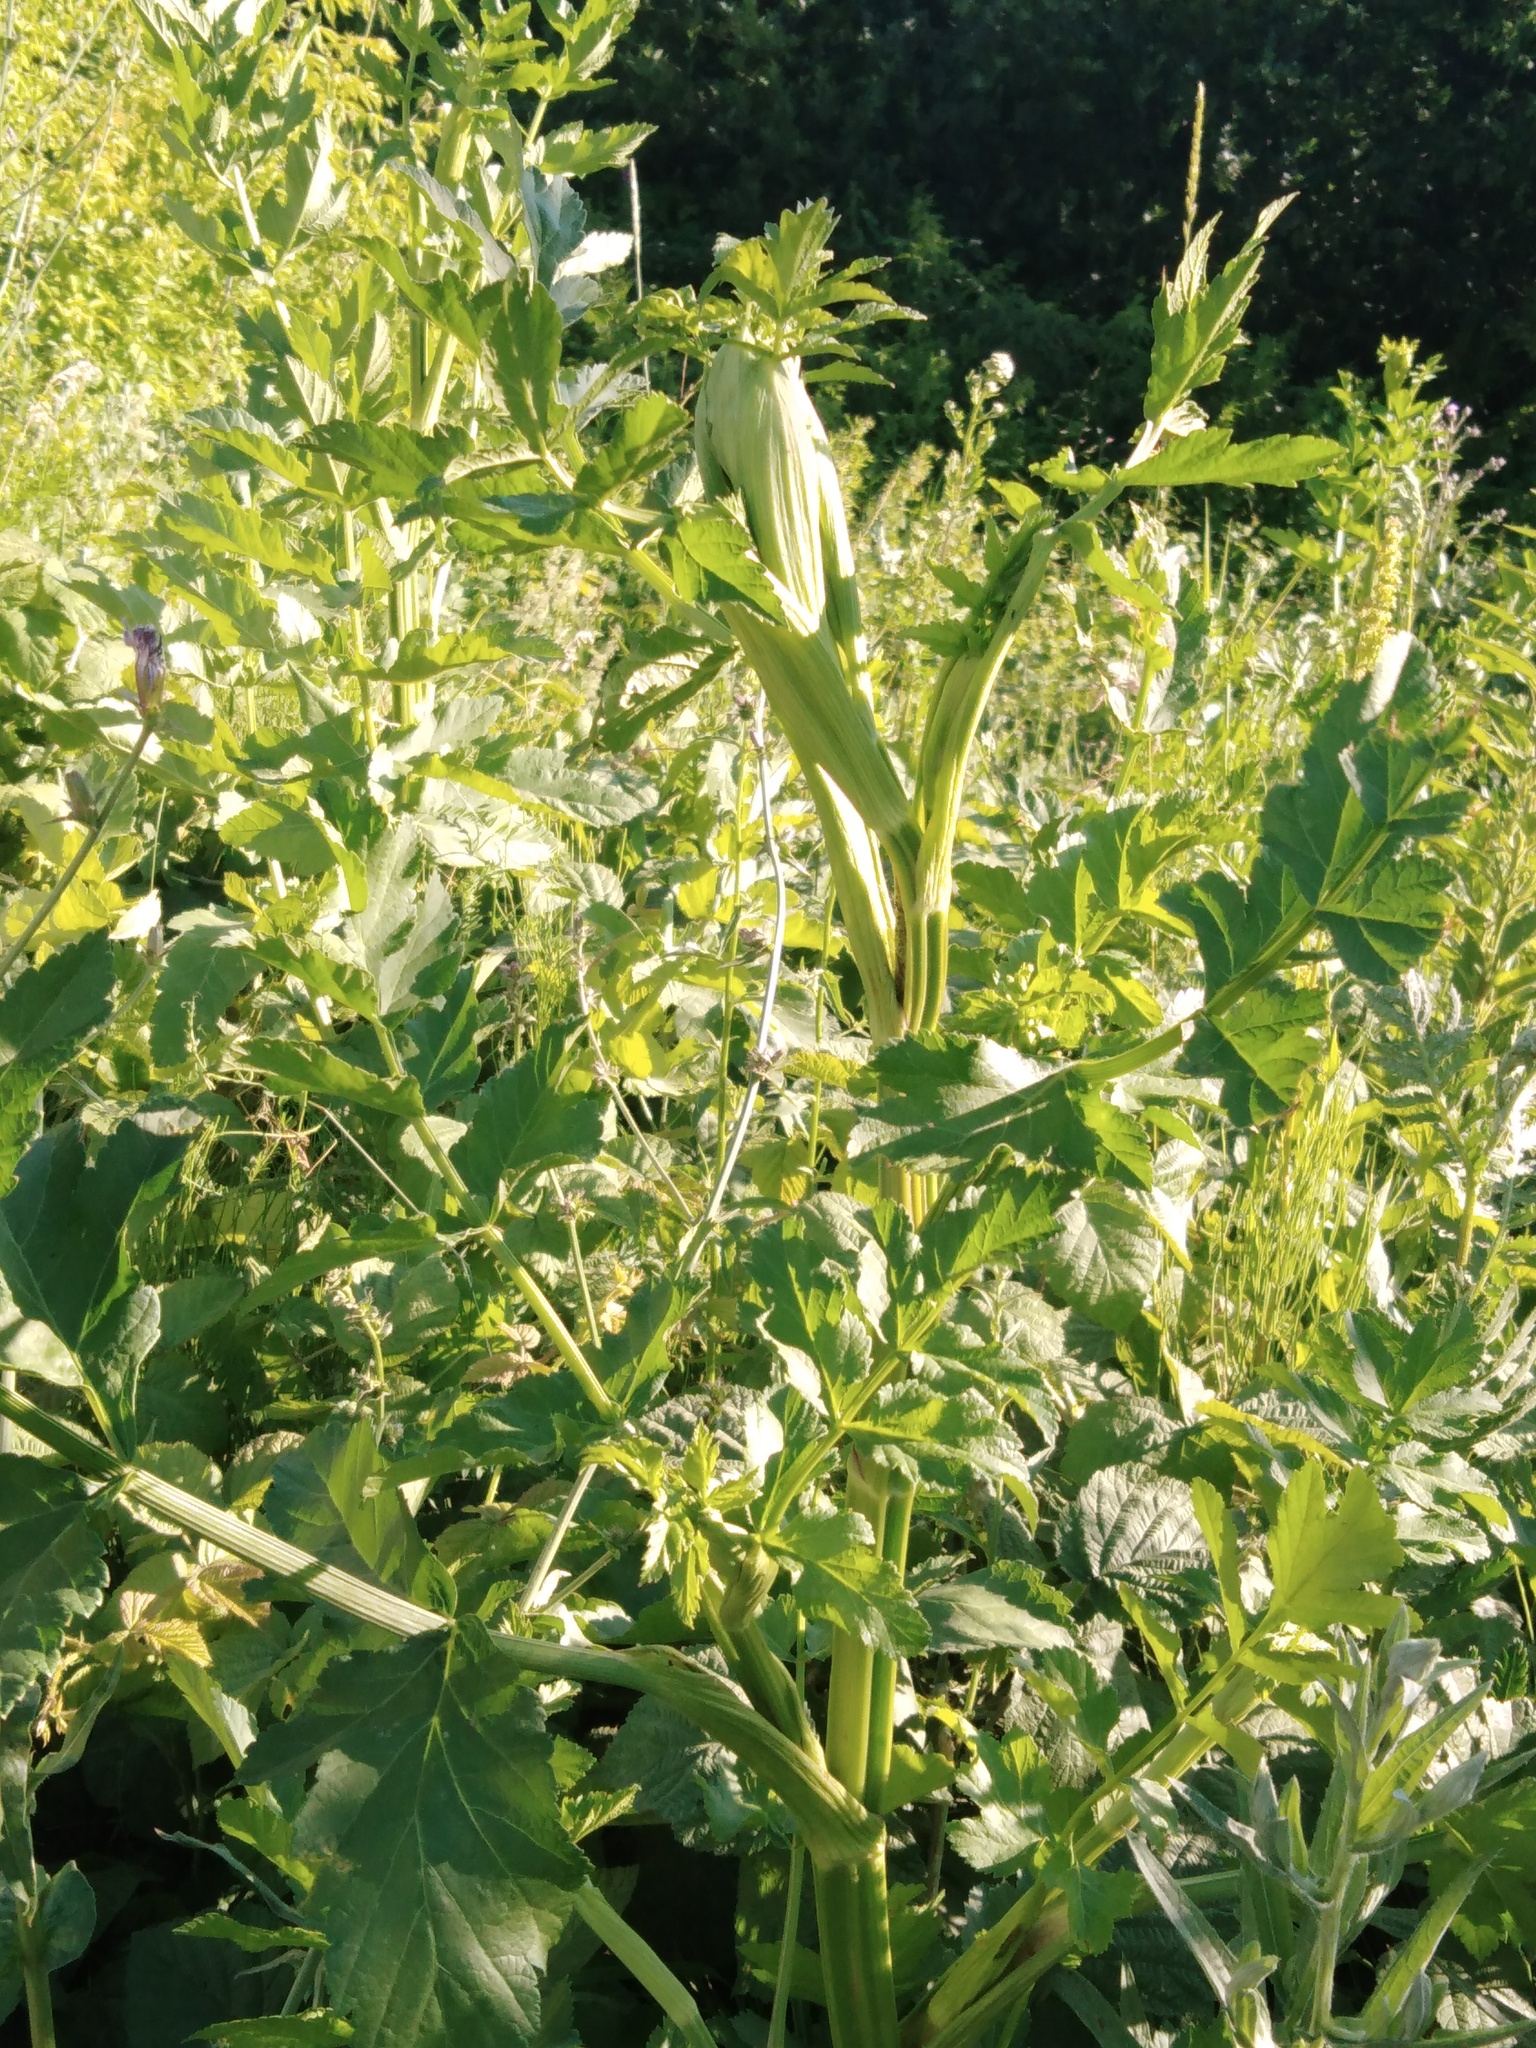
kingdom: Plantae
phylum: Tracheophyta
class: Magnoliopsida
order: Apiales
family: Apiaceae
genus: Angelica
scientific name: Angelica archangelica
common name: Garden angelica
